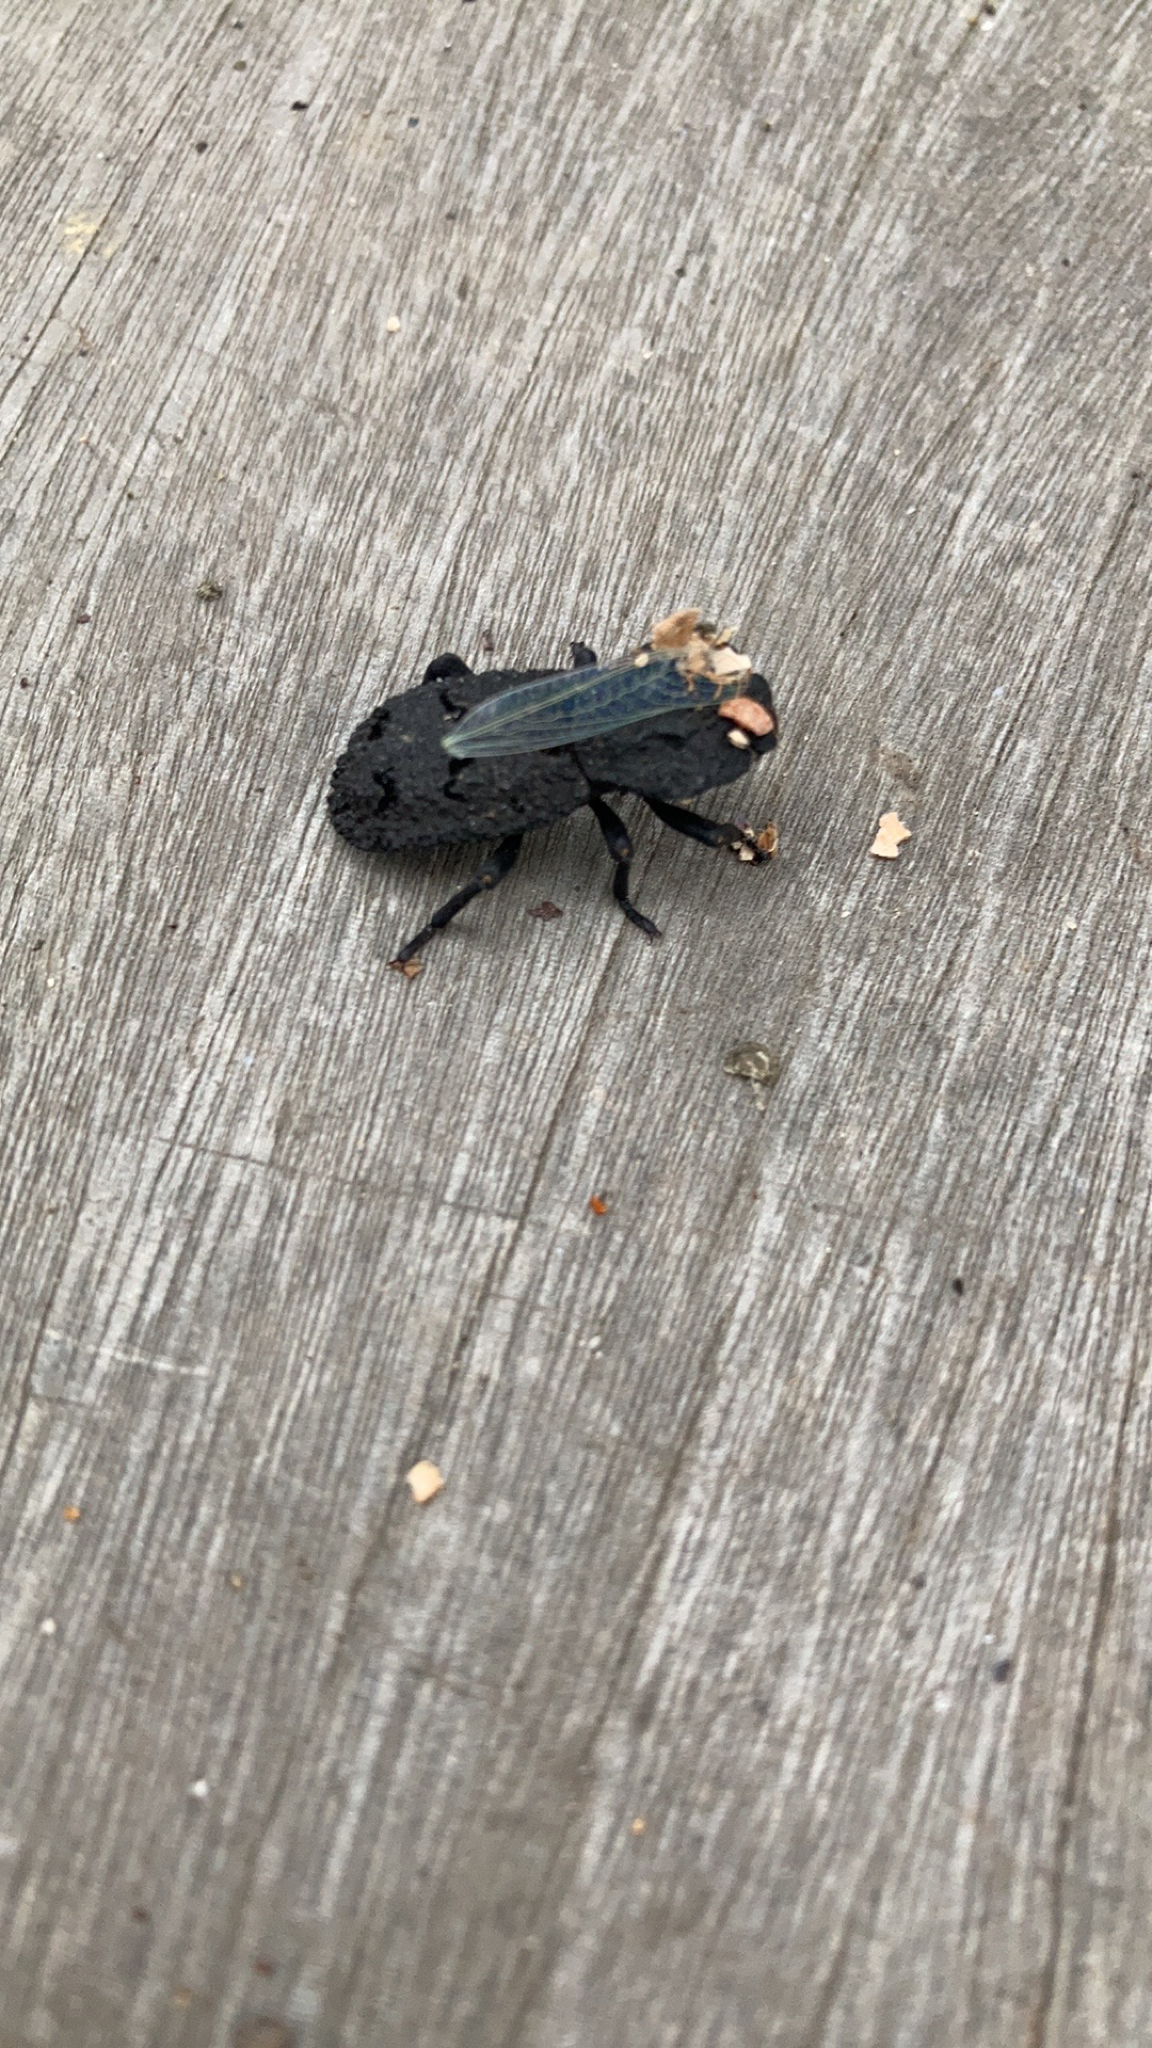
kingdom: Animalia
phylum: Arthropoda
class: Insecta
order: Coleoptera
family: Zopheridae
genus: Phloeodes
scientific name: Phloeodes diabolicus
